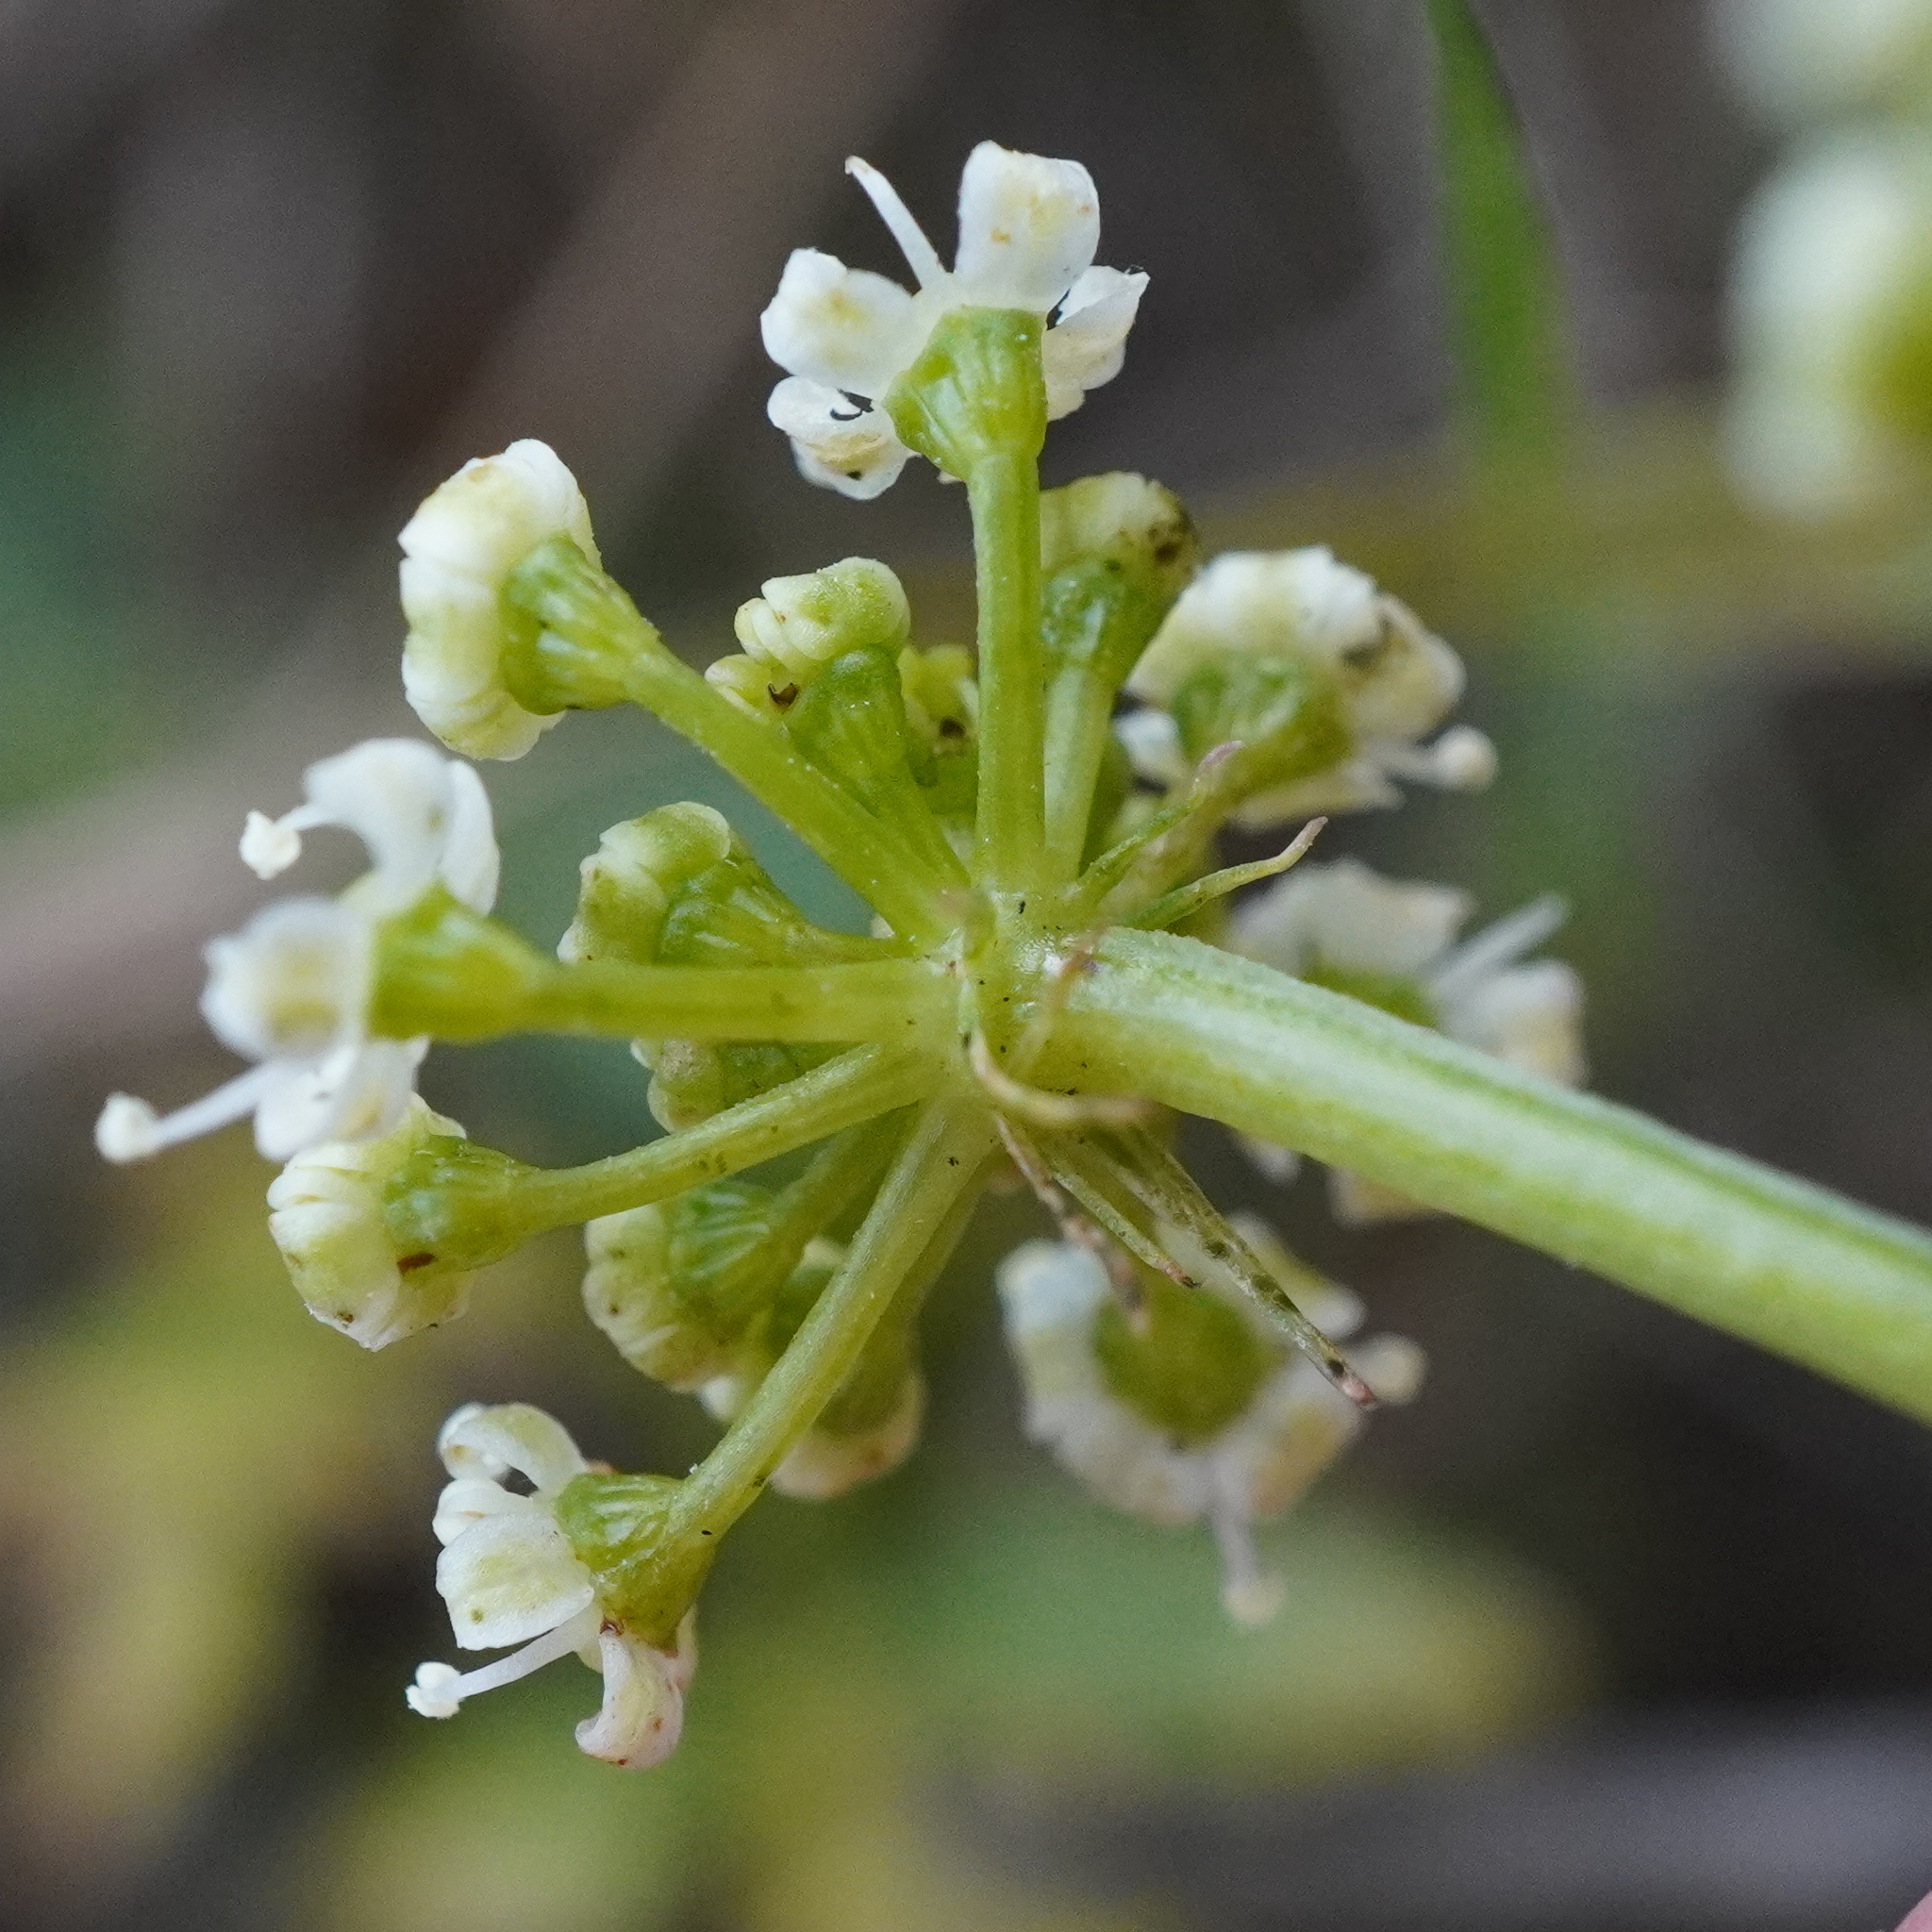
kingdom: Plantae
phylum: Tracheophyta
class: Magnoliopsida
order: Apiales
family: Apiaceae
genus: Oreoselinum
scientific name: Oreoselinum nigrum
